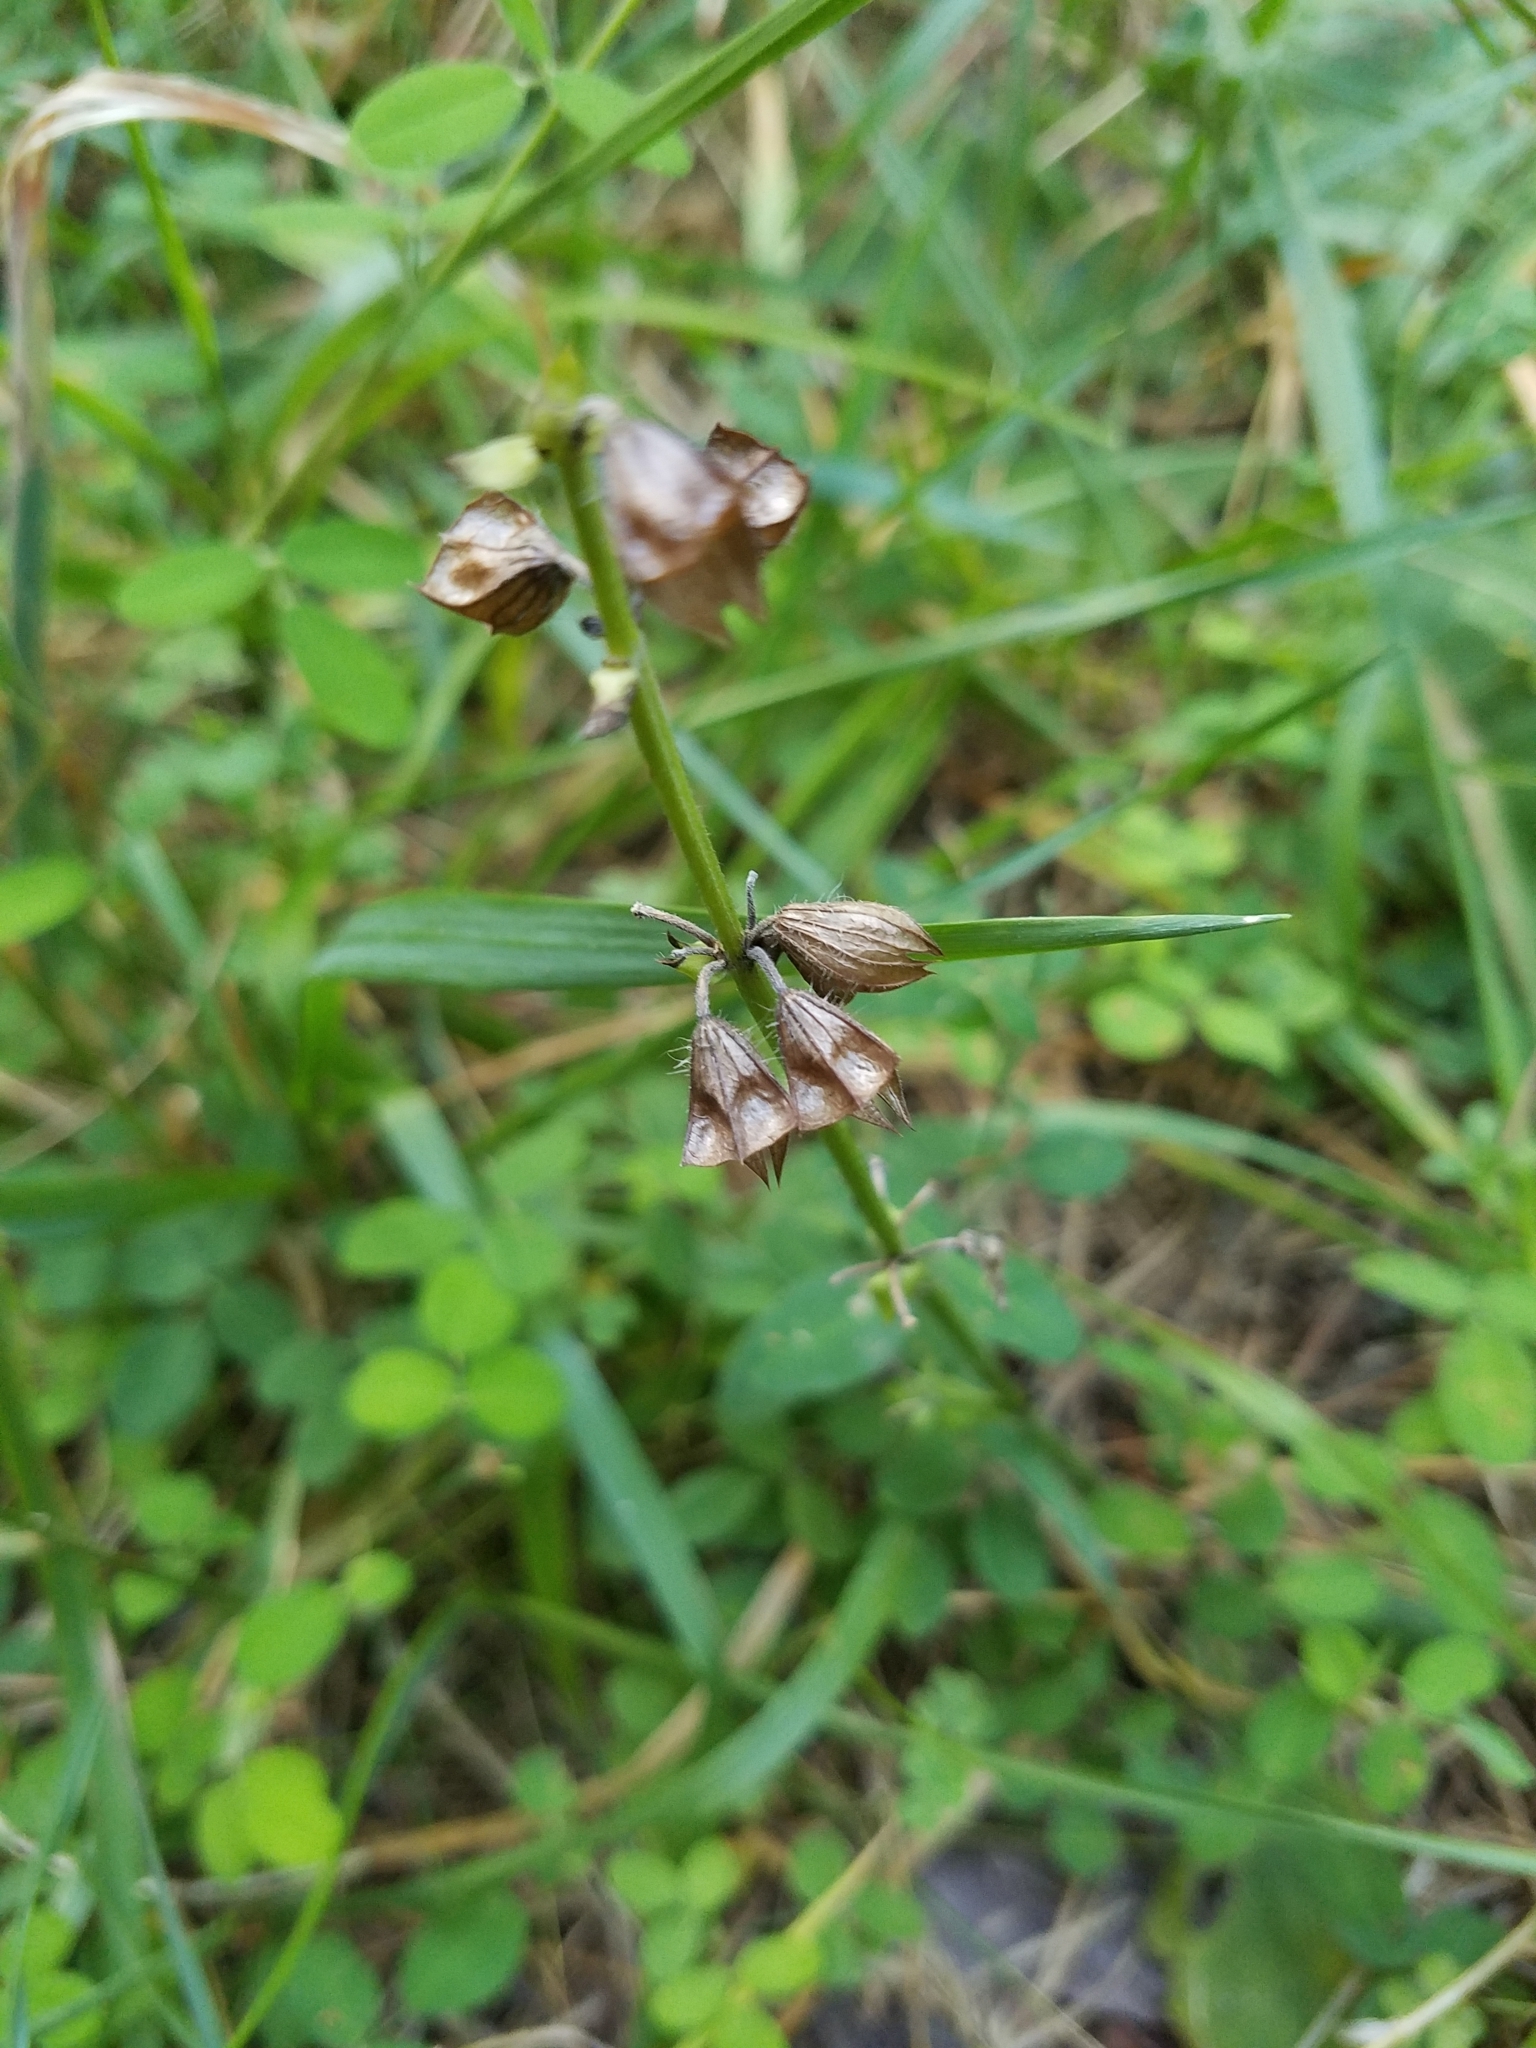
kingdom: Plantae
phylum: Tracheophyta
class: Magnoliopsida
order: Lamiales
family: Lamiaceae
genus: Salvia
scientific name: Salvia lyrata
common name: Cancerweed
